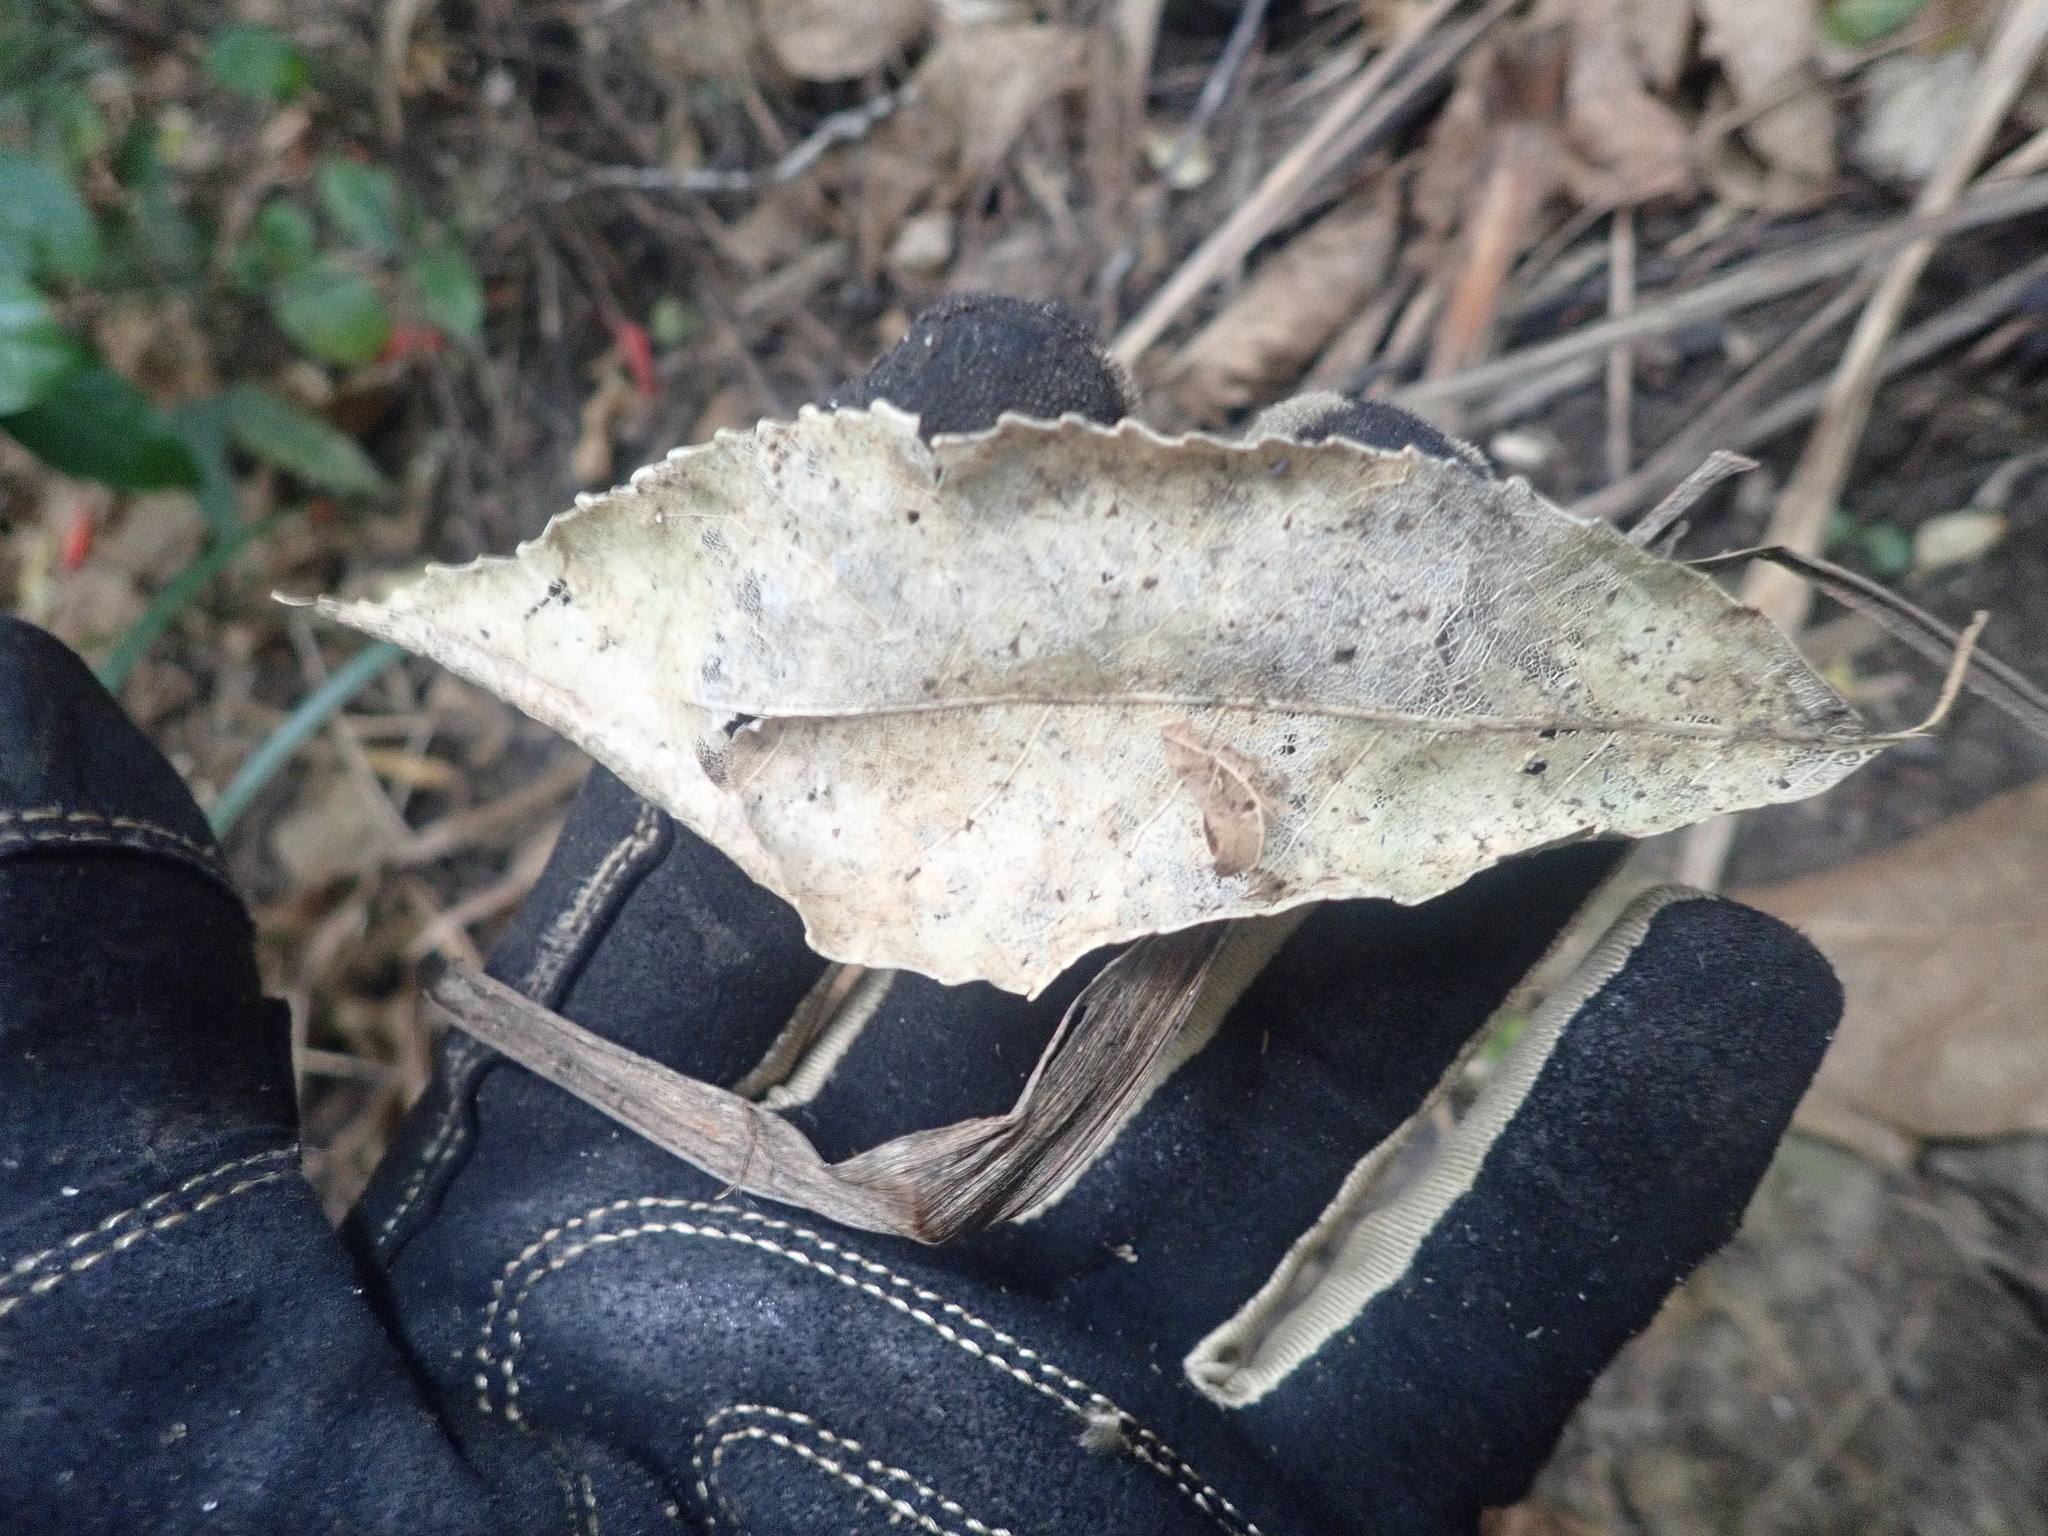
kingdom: Plantae
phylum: Tracheophyta
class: Magnoliopsida
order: Malpighiales
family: Violaceae
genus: Melicytus
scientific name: Melicytus ramiflorus
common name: Mahoe
